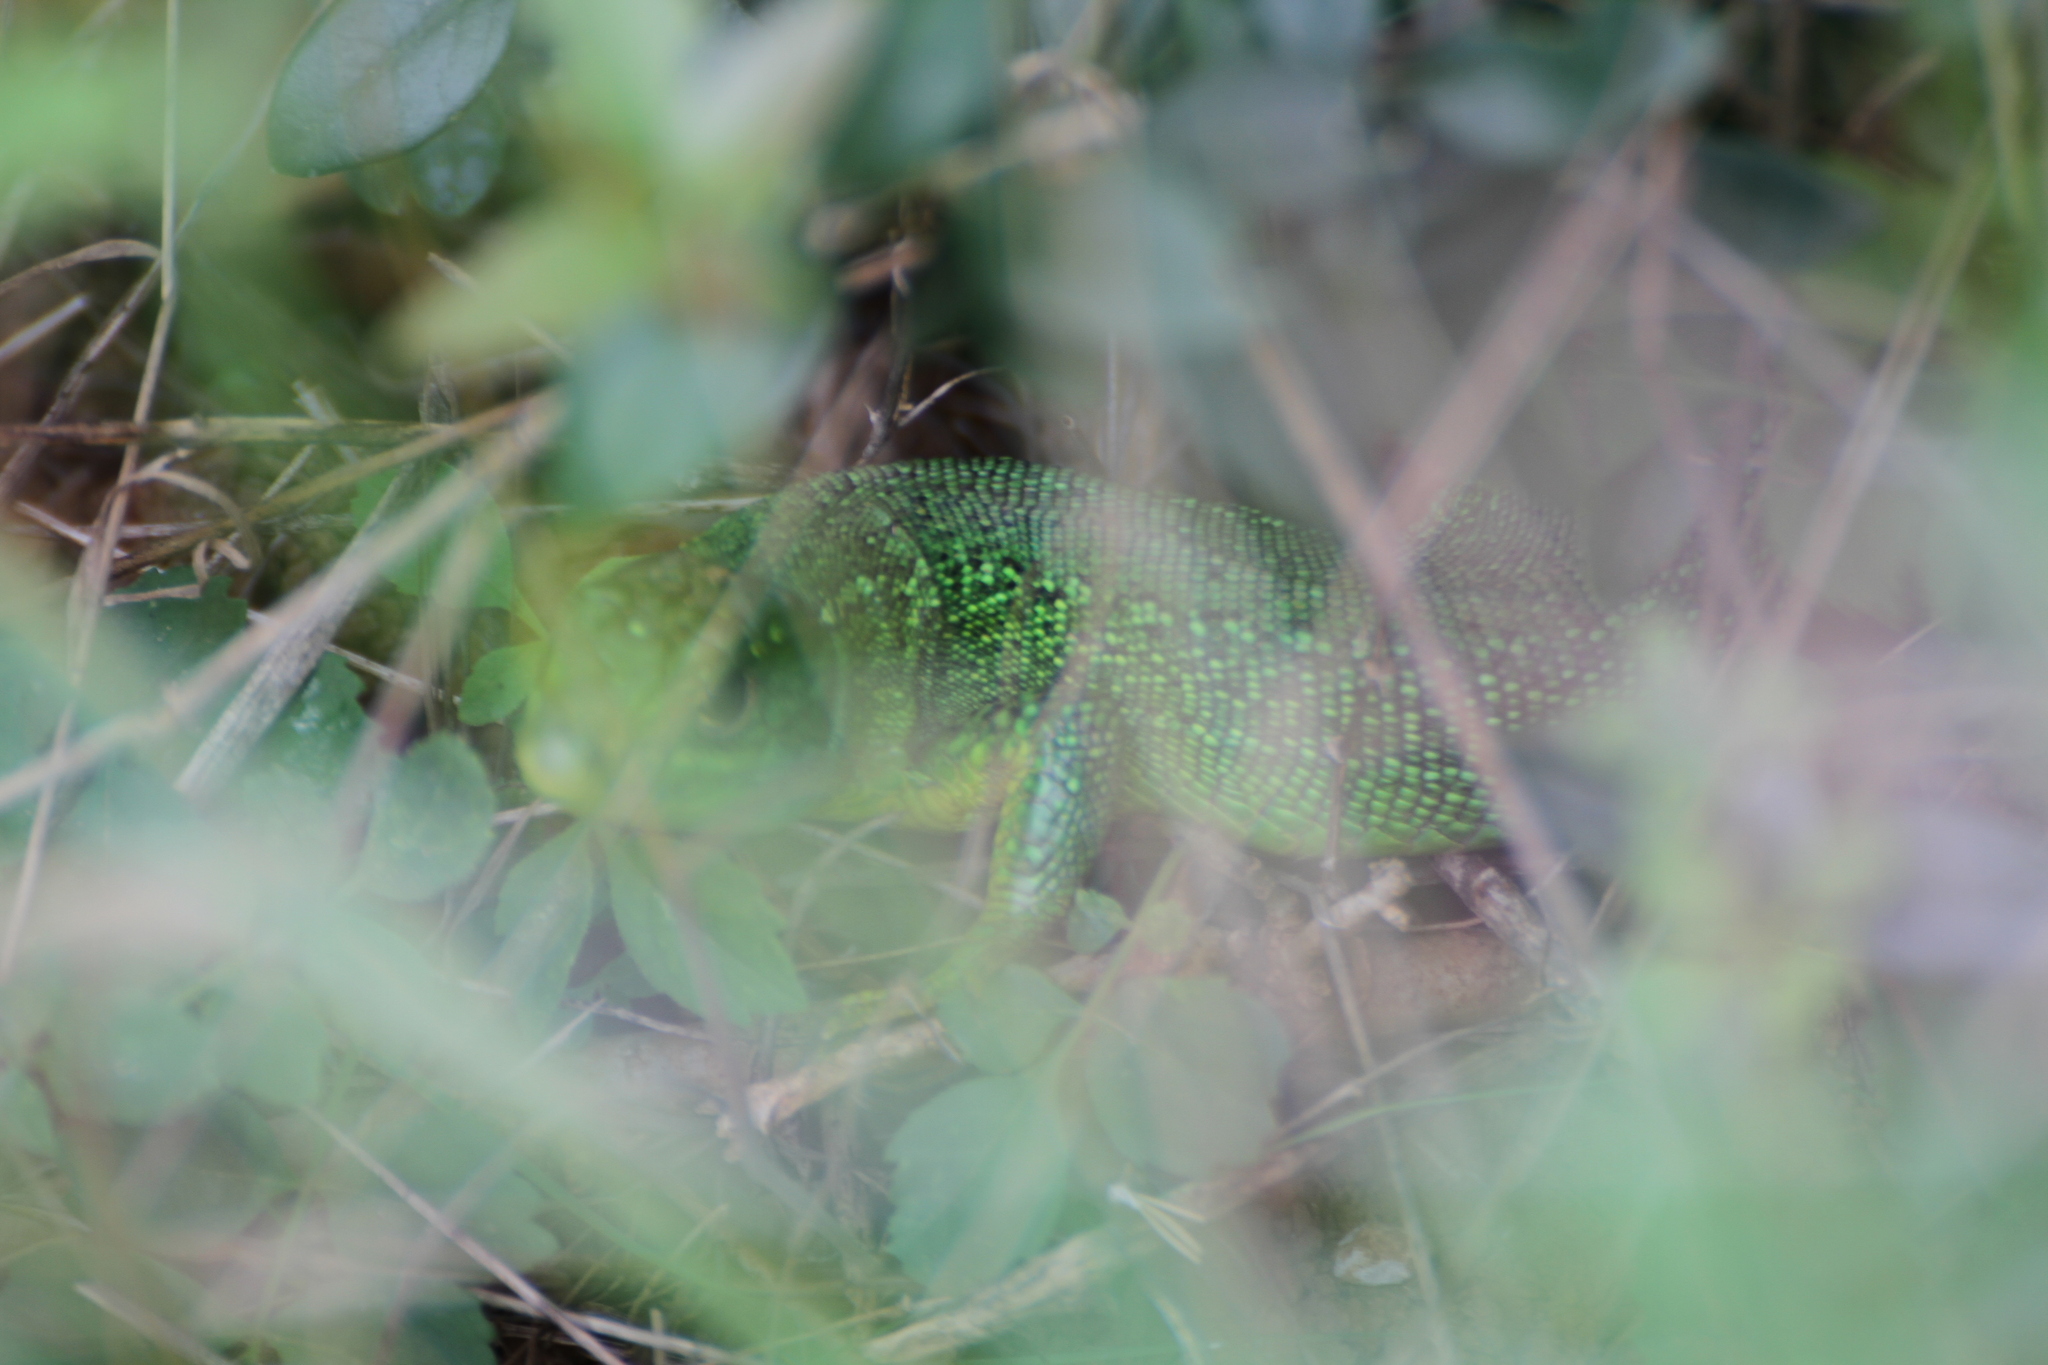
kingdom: Animalia
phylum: Chordata
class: Squamata
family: Lacertidae
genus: Lacerta
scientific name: Lacerta bilineata
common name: Western green lizard
